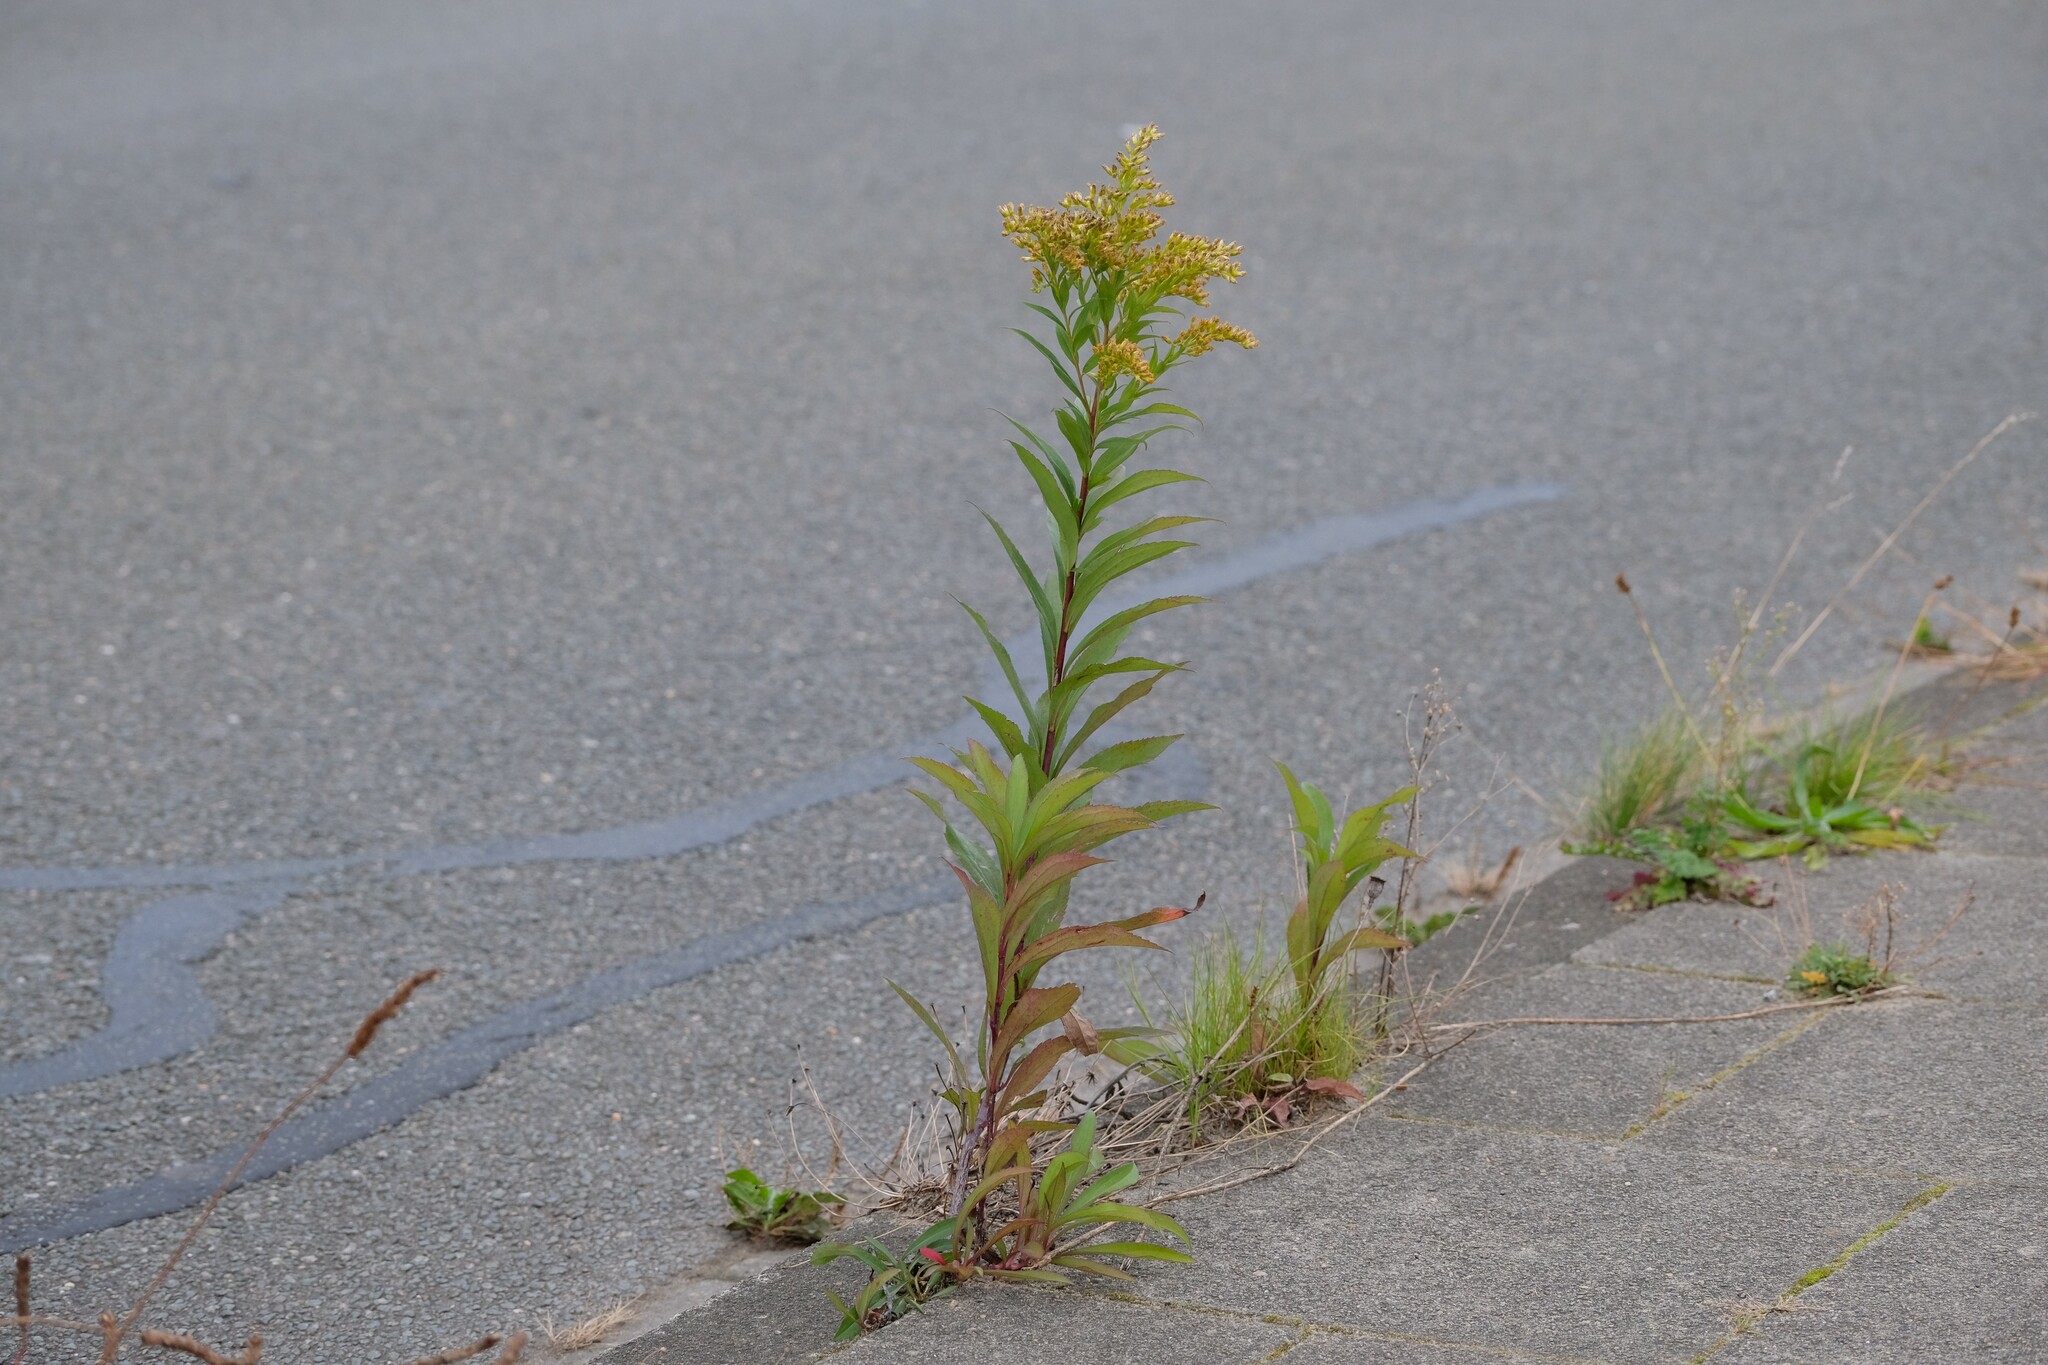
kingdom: Plantae
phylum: Tracheophyta
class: Magnoliopsida
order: Asterales
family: Asteraceae
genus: Solidago
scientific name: Solidago gigantea
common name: Giant goldenrod
